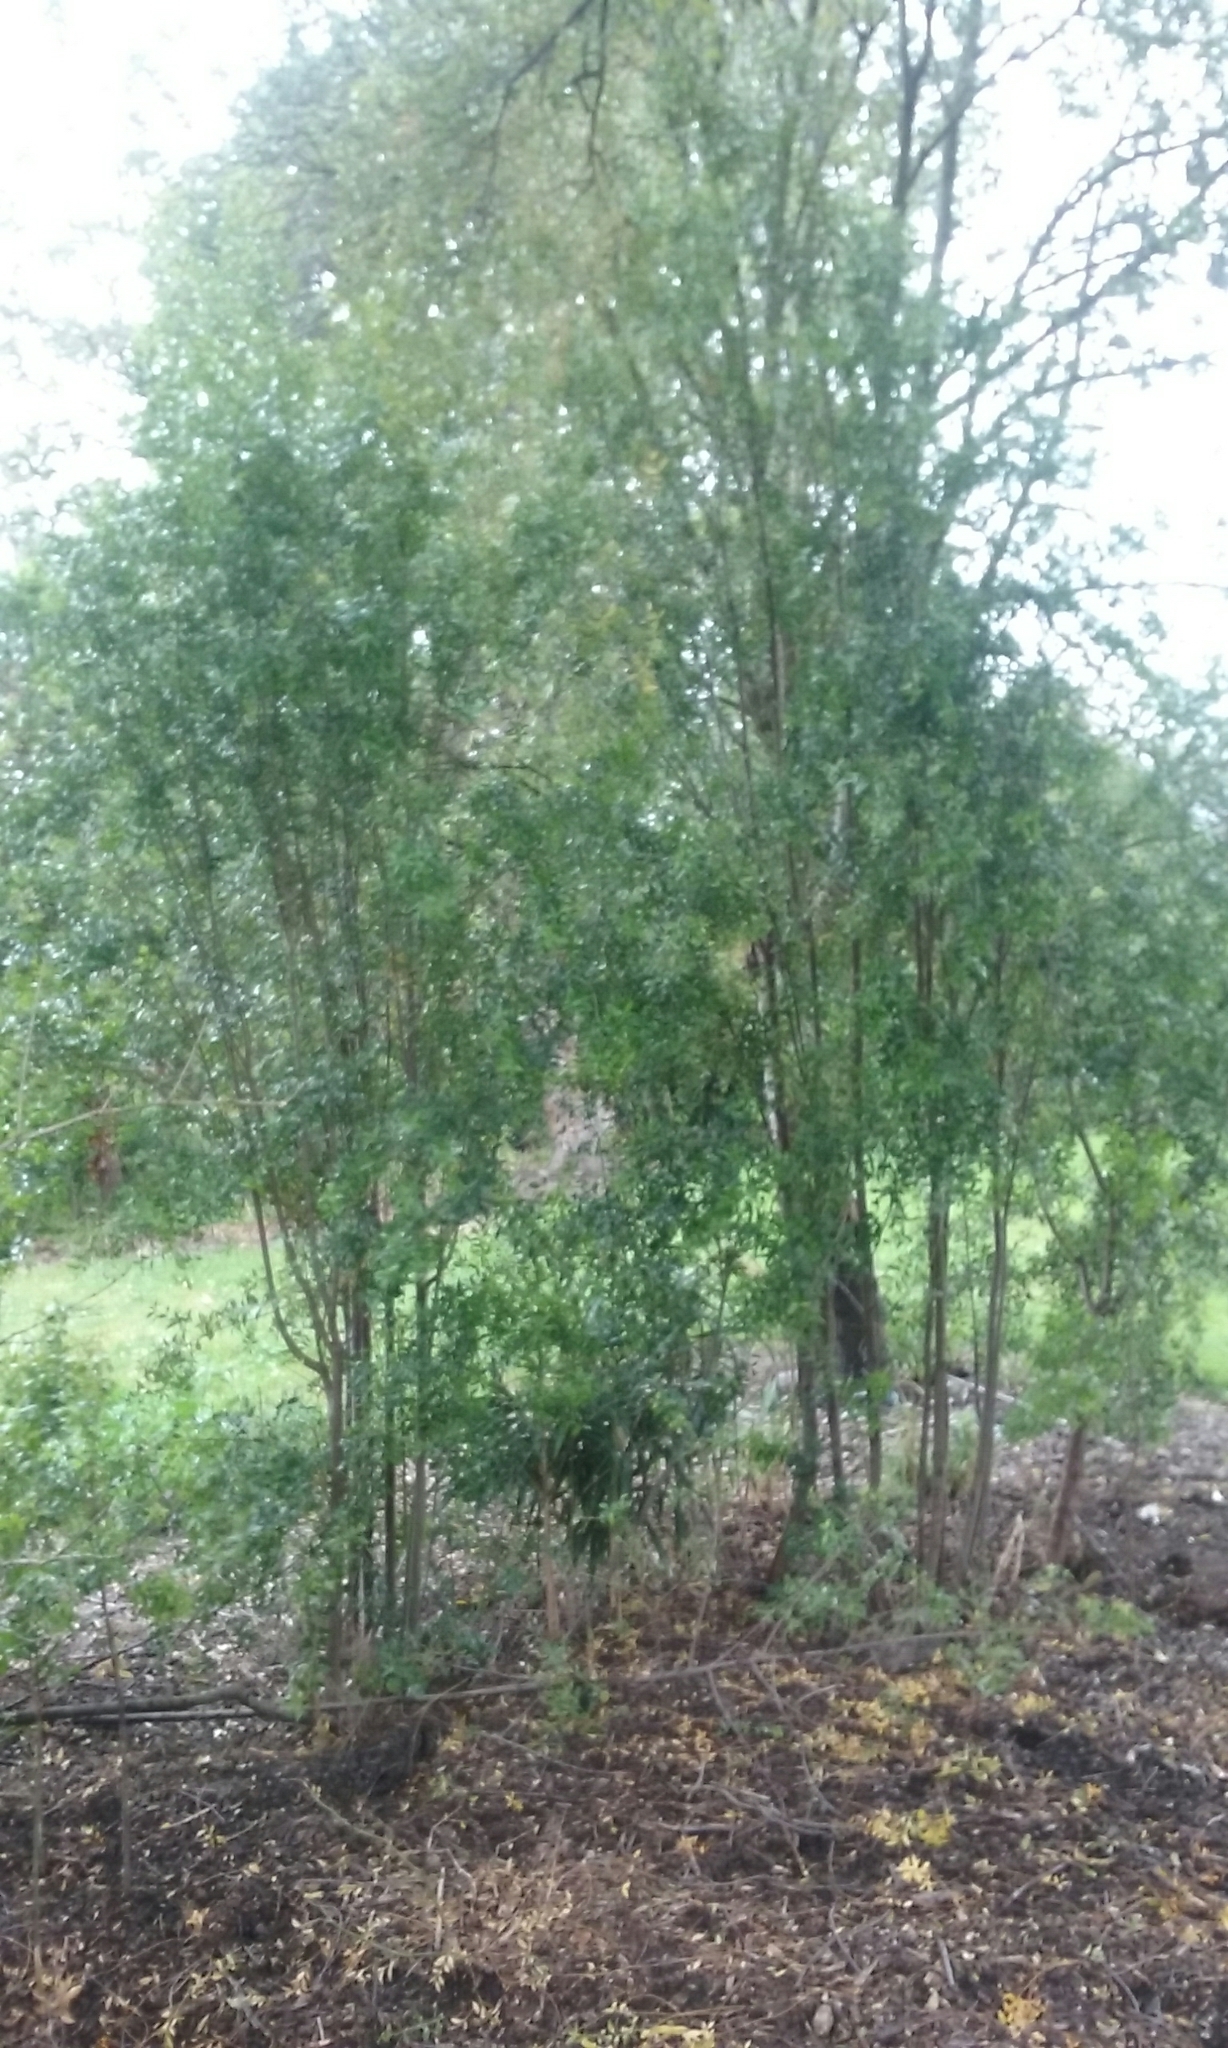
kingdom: Plantae
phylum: Tracheophyta
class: Magnoliopsida
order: Celastrales
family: Celastraceae
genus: Maytenus
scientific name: Maytenus boaria
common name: Mayten
